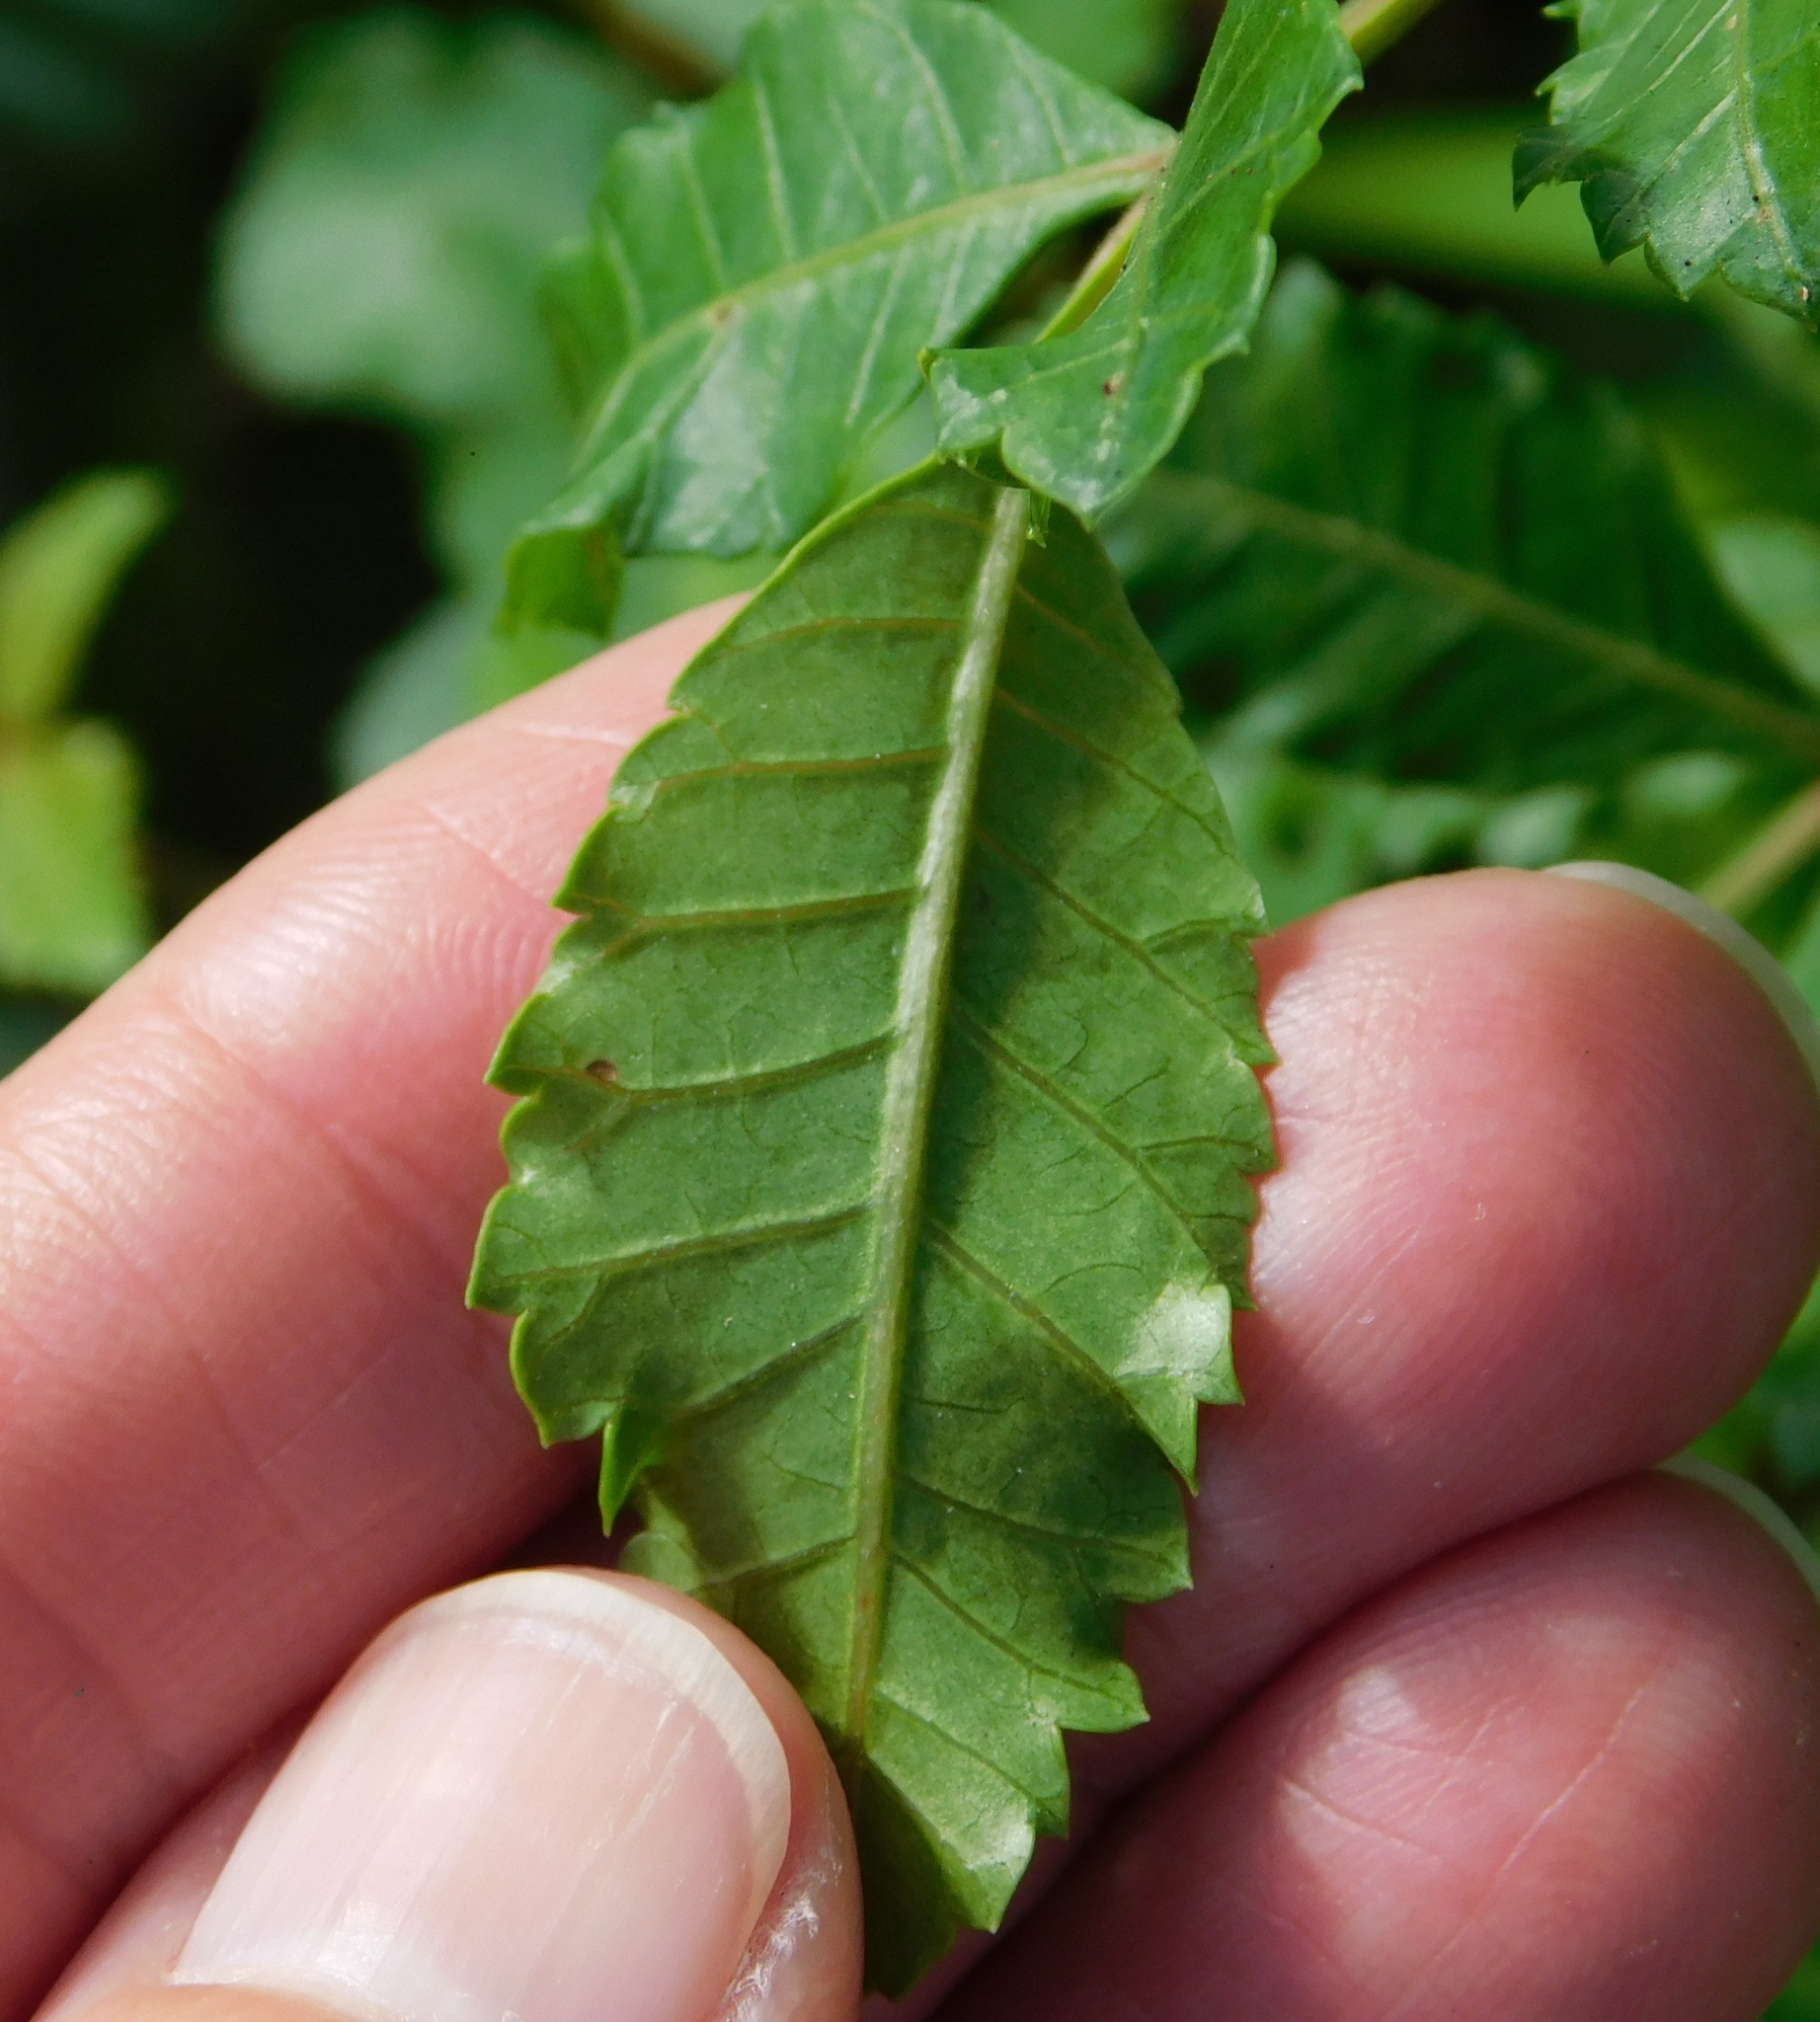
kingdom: Plantae
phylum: Tracheophyta
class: Magnoliopsida
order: Sapindales
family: Anacardiaceae
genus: Schinus
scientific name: Schinus terebinthifolia
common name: Brazilian peppertree
